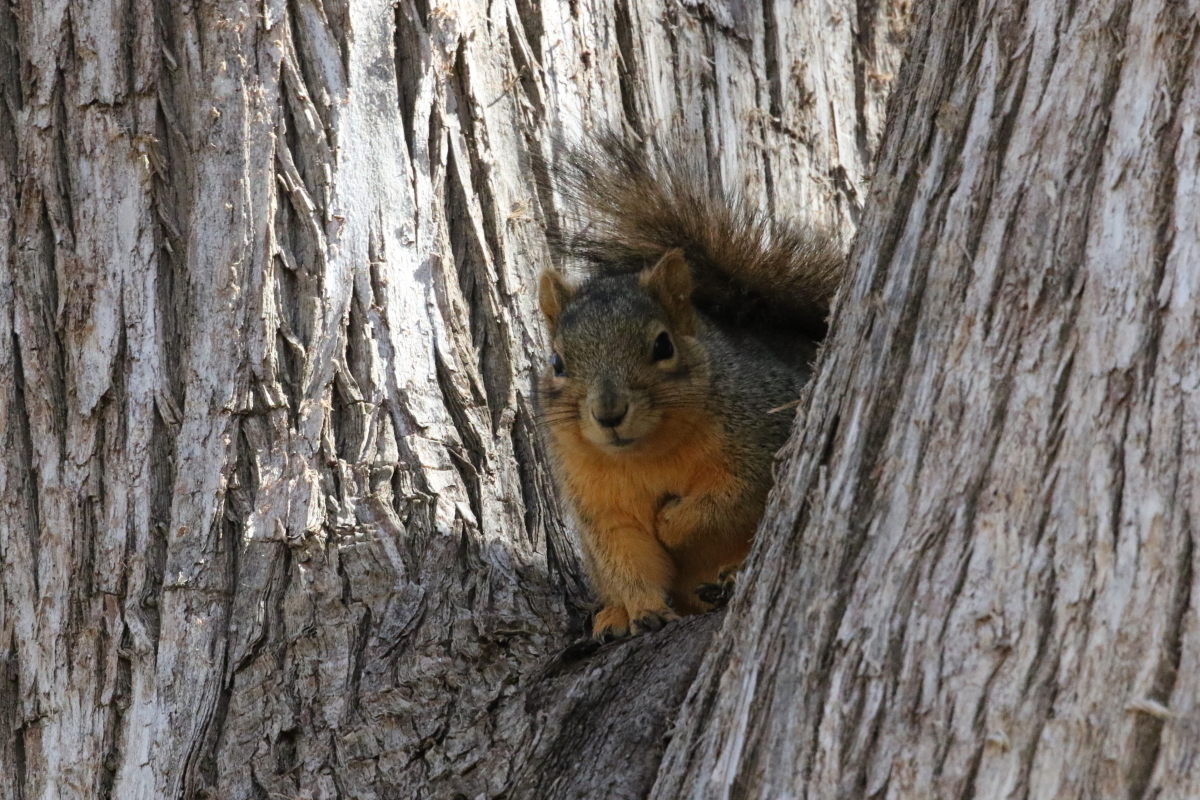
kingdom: Animalia
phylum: Chordata
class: Mammalia
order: Rodentia
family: Sciuridae
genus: Sciurus
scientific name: Sciurus niger
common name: Fox squirrel
